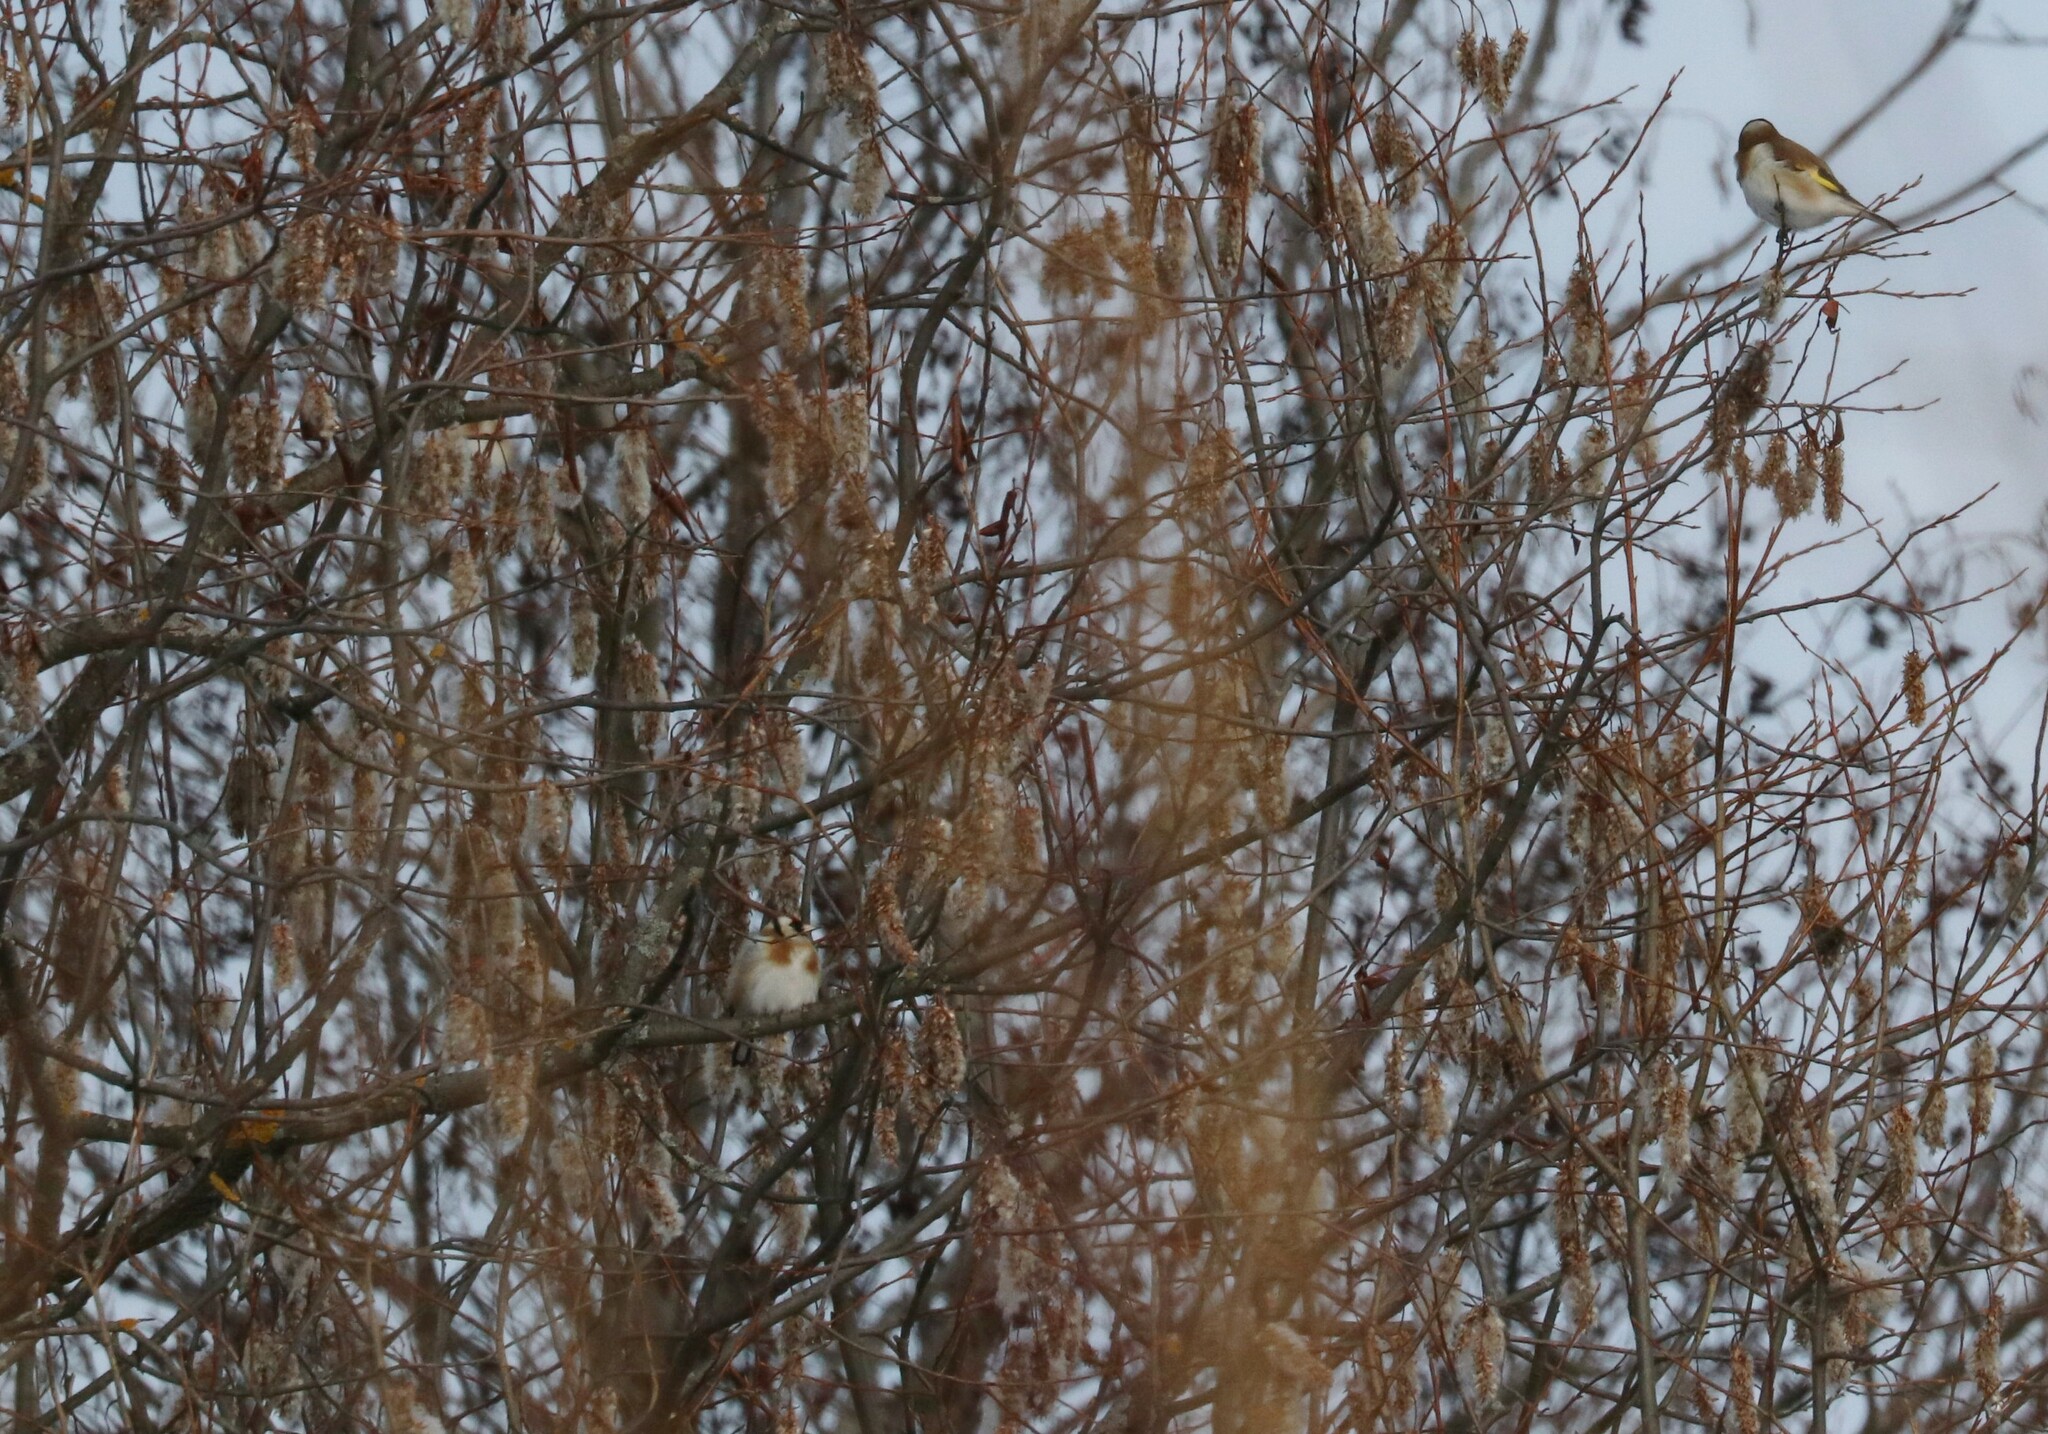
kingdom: Animalia
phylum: Chordata
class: Aves
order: Passeriformes
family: Fringillidae
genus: Carduelis
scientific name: Carduelis carduelis
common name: European goldfinch
